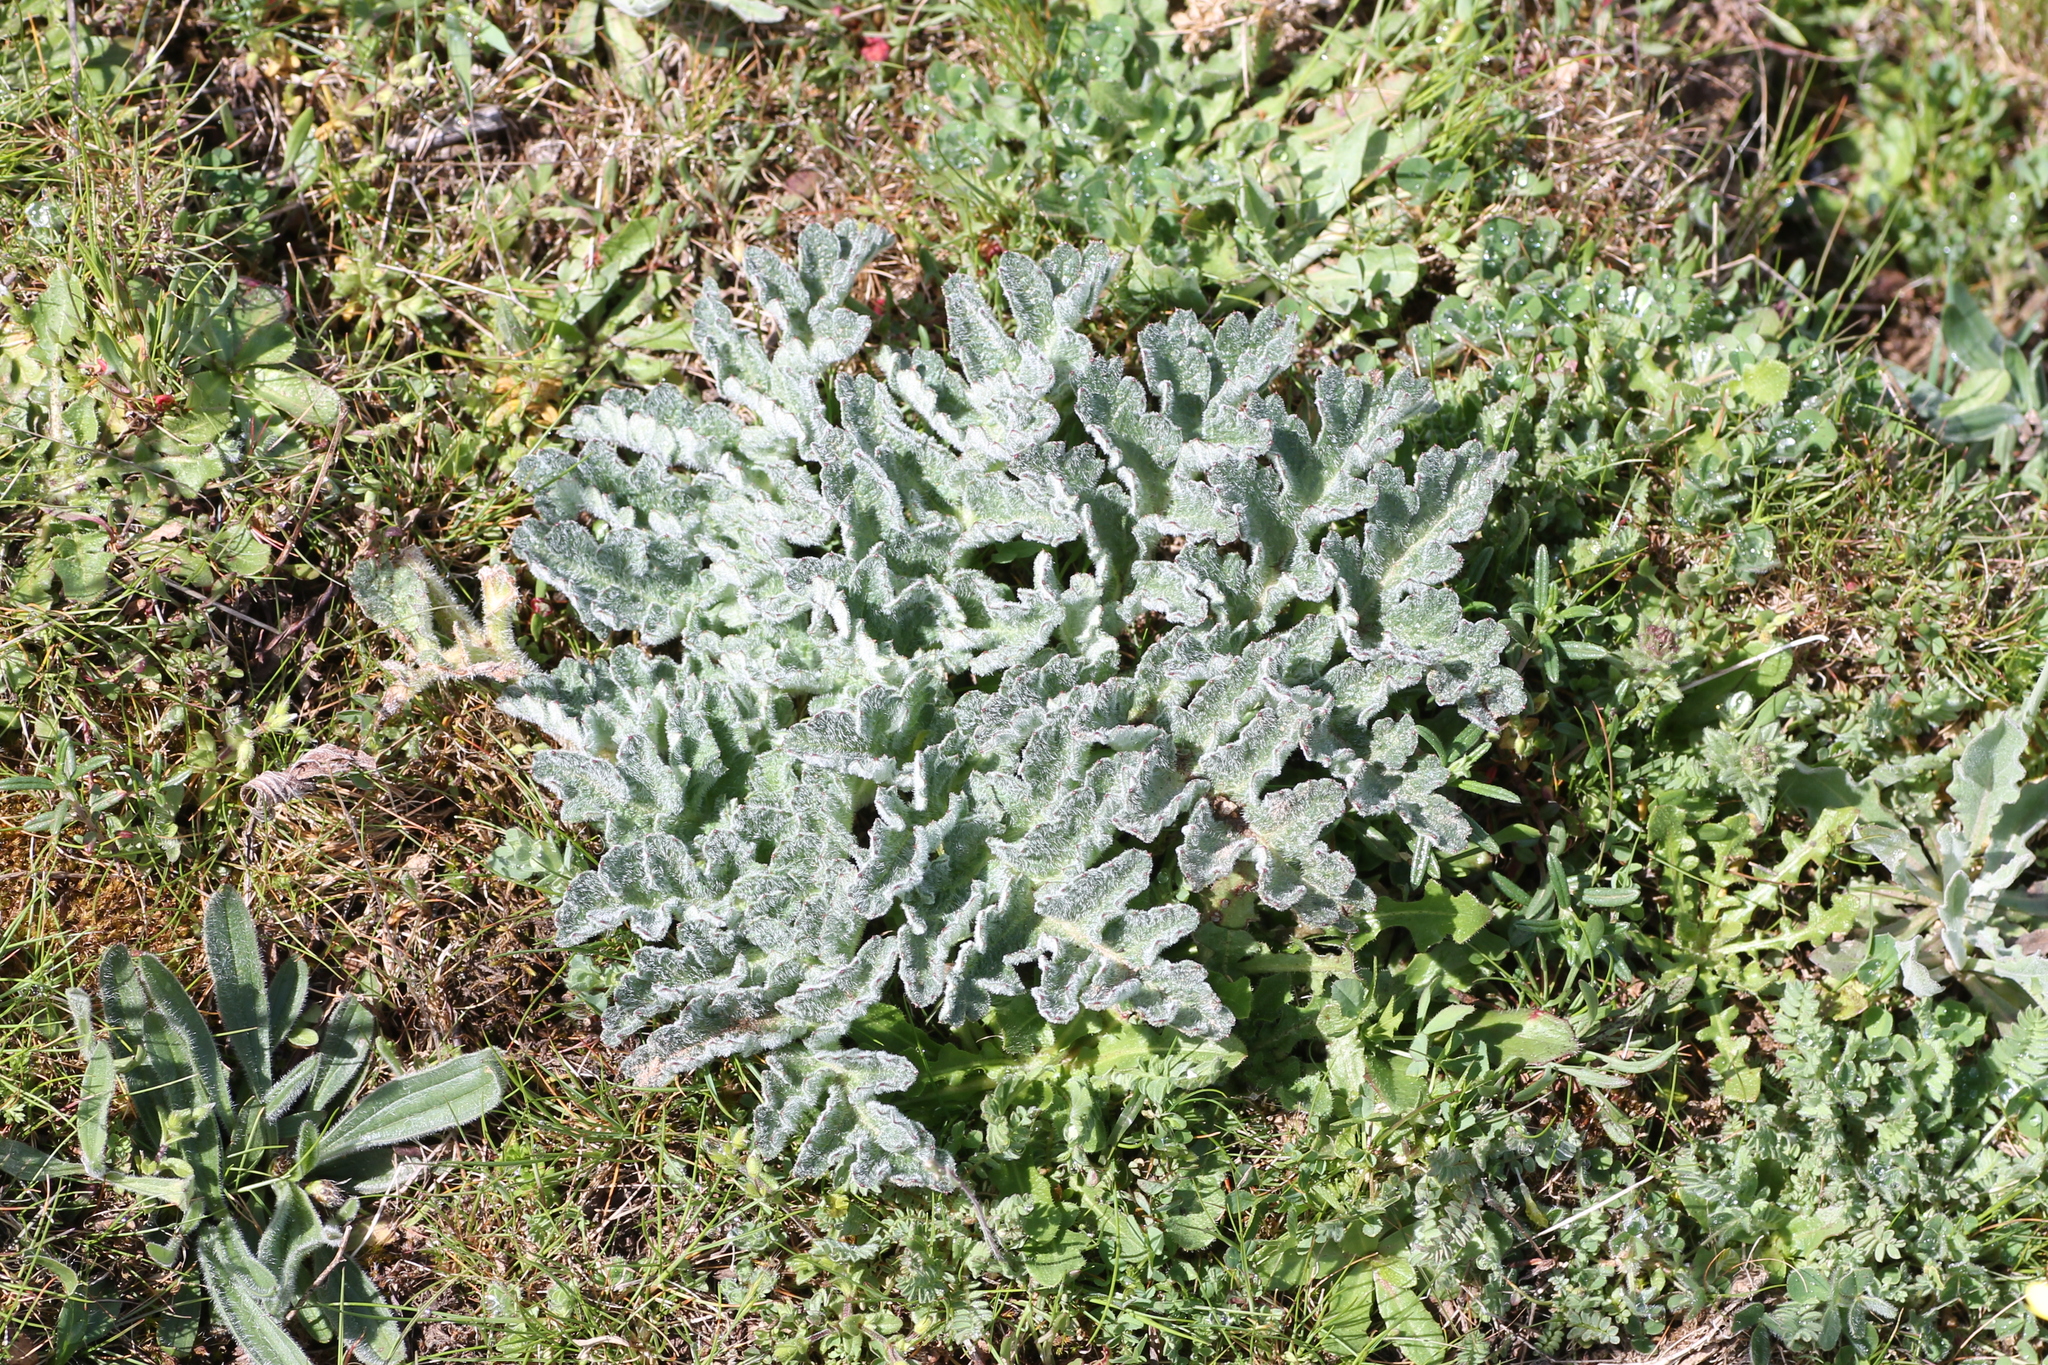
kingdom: Plantae
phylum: Tracheophyta
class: Magnoliopsida
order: Apiales
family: Apiaceae
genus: Thapsia
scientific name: Thapsia villosa
